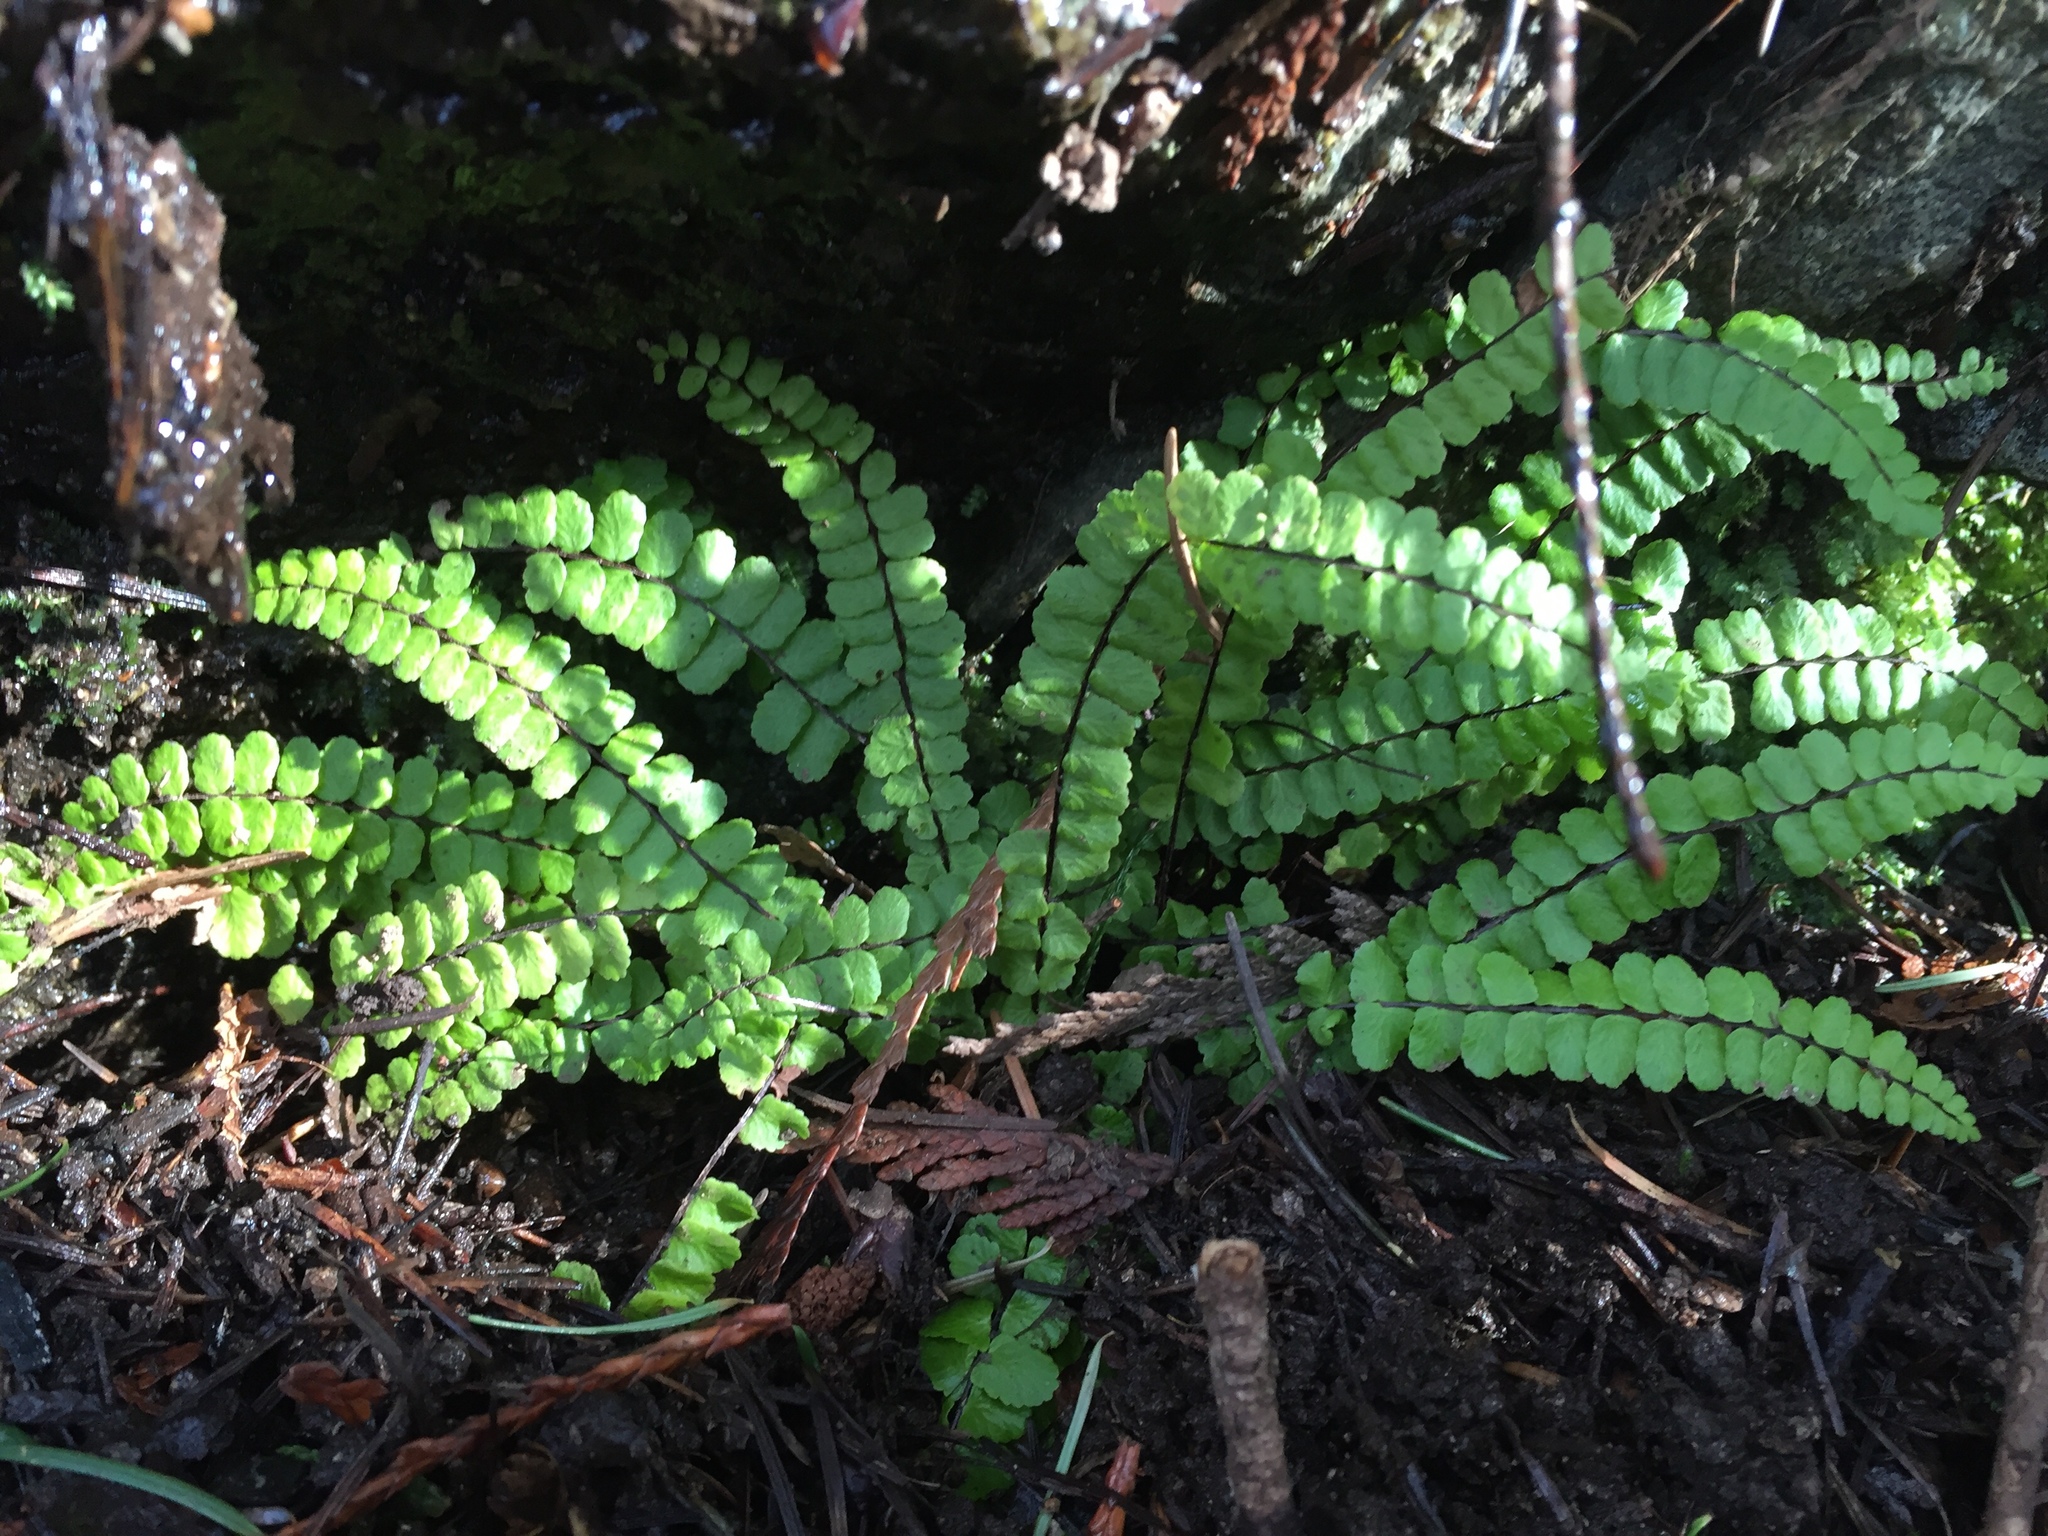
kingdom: Plantae
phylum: Tracheophyta
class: Polypodiopsida
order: Polypodiales
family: Aspleniaceae
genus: Asplenium
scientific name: Asplenium trichomanes
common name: Maidenhair spleenwort
